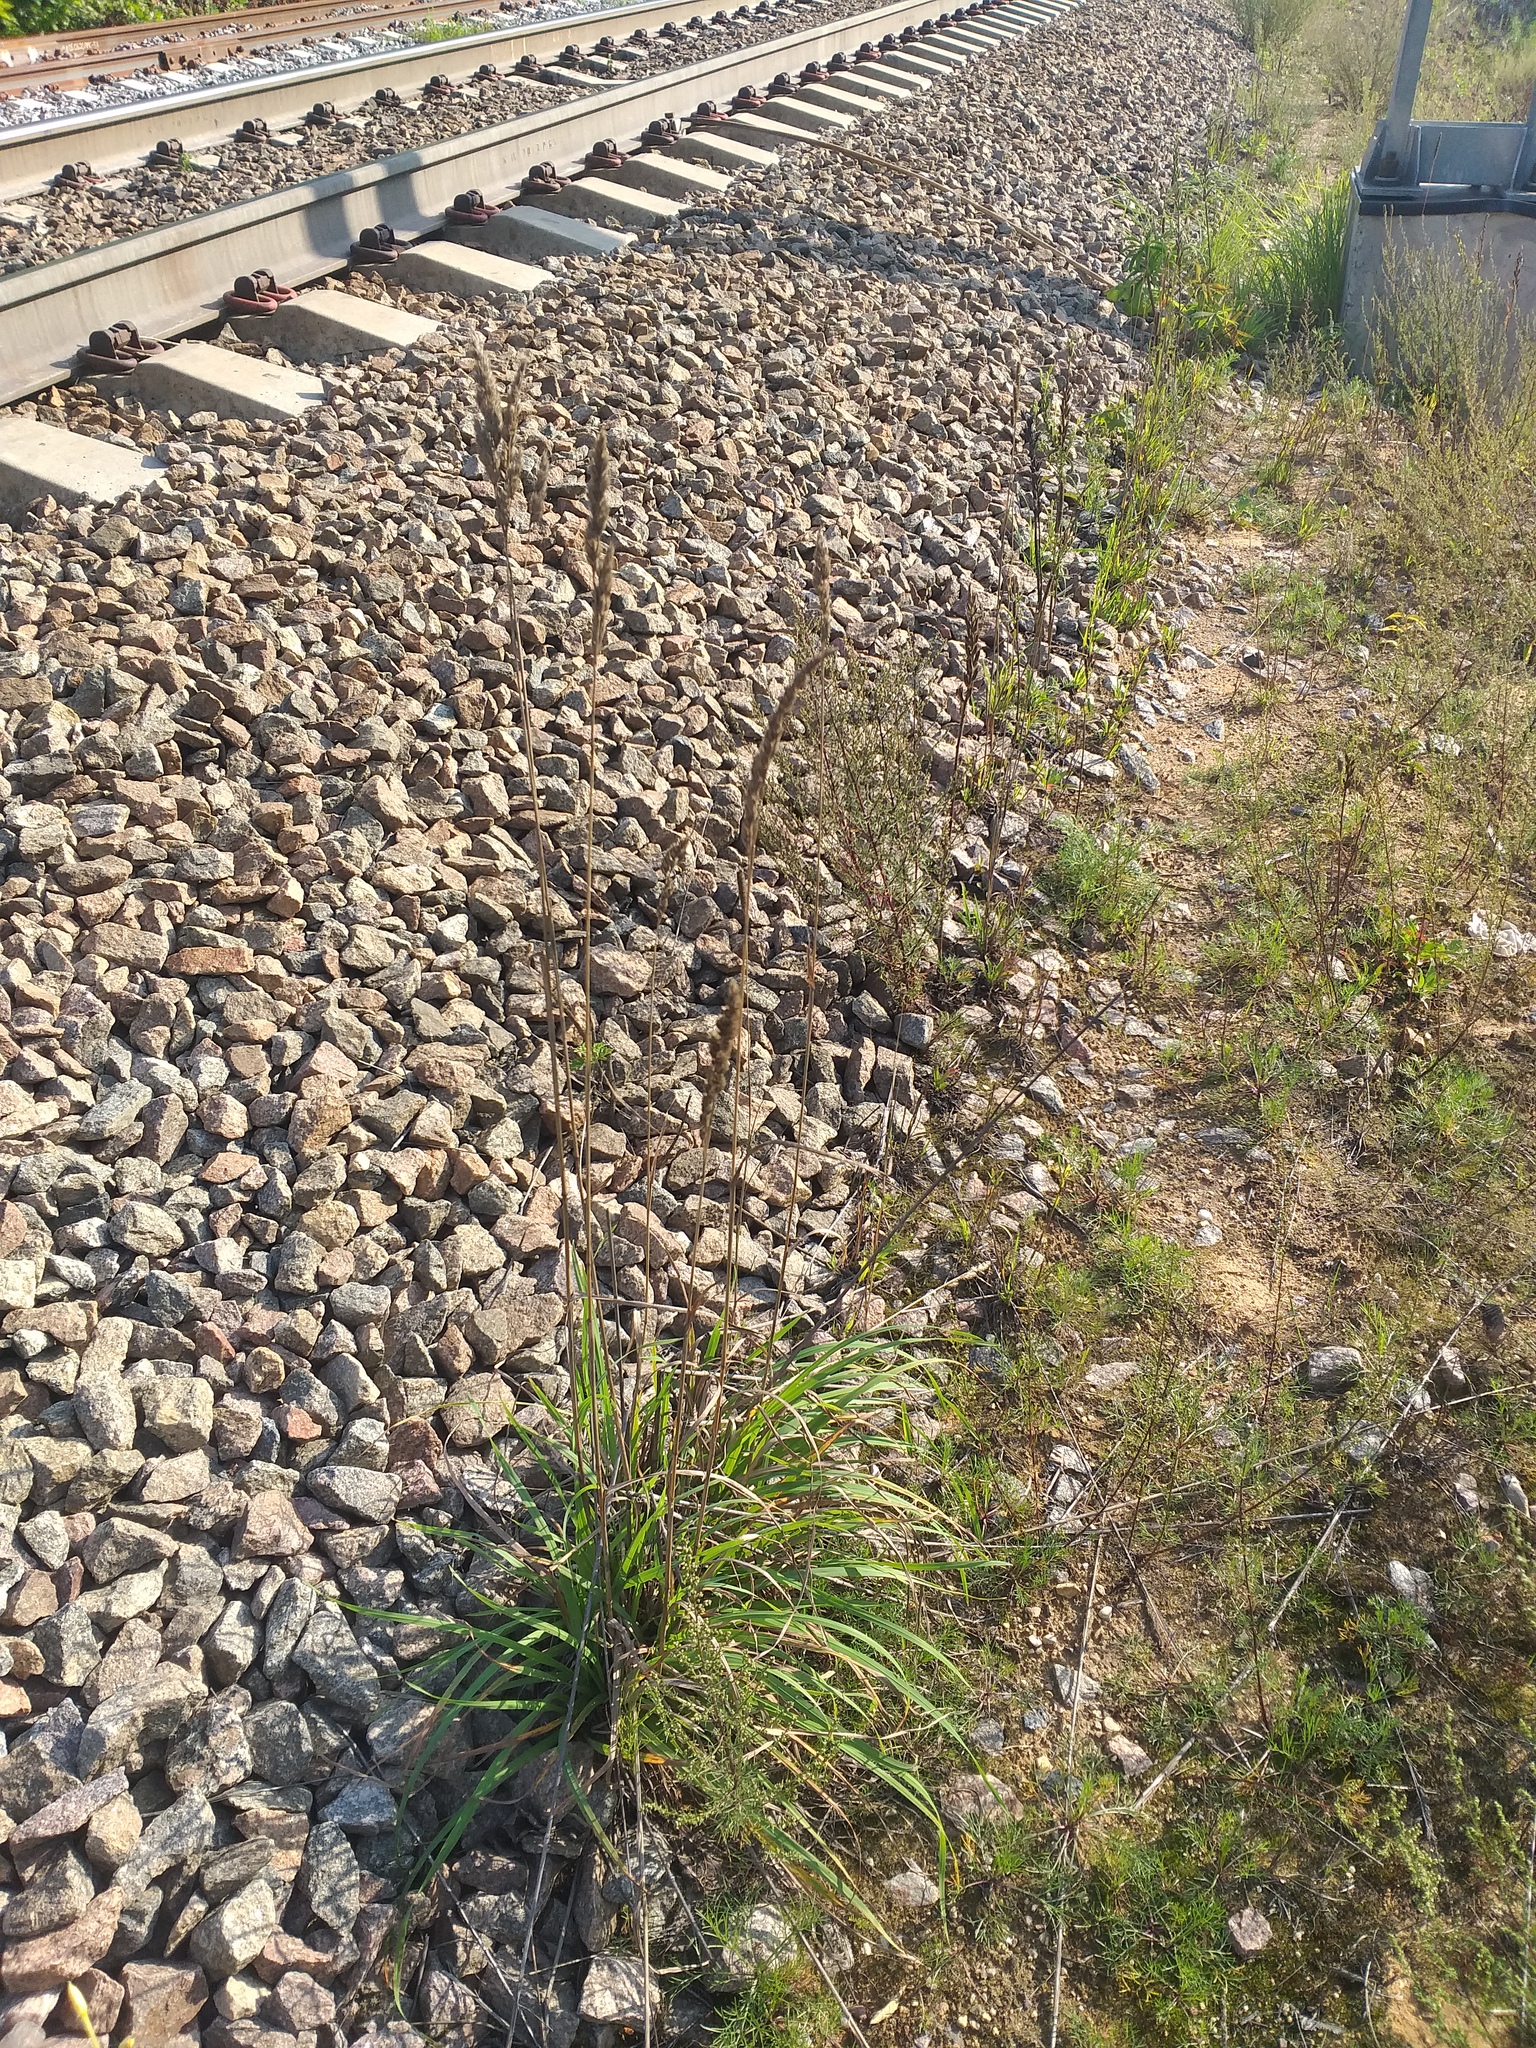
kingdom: Plantae
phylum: Tracheophyta
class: Liliopsida
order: Poales
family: Poaceae
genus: Dactylis
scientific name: Dactylis glomerata
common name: Orchardgrass
